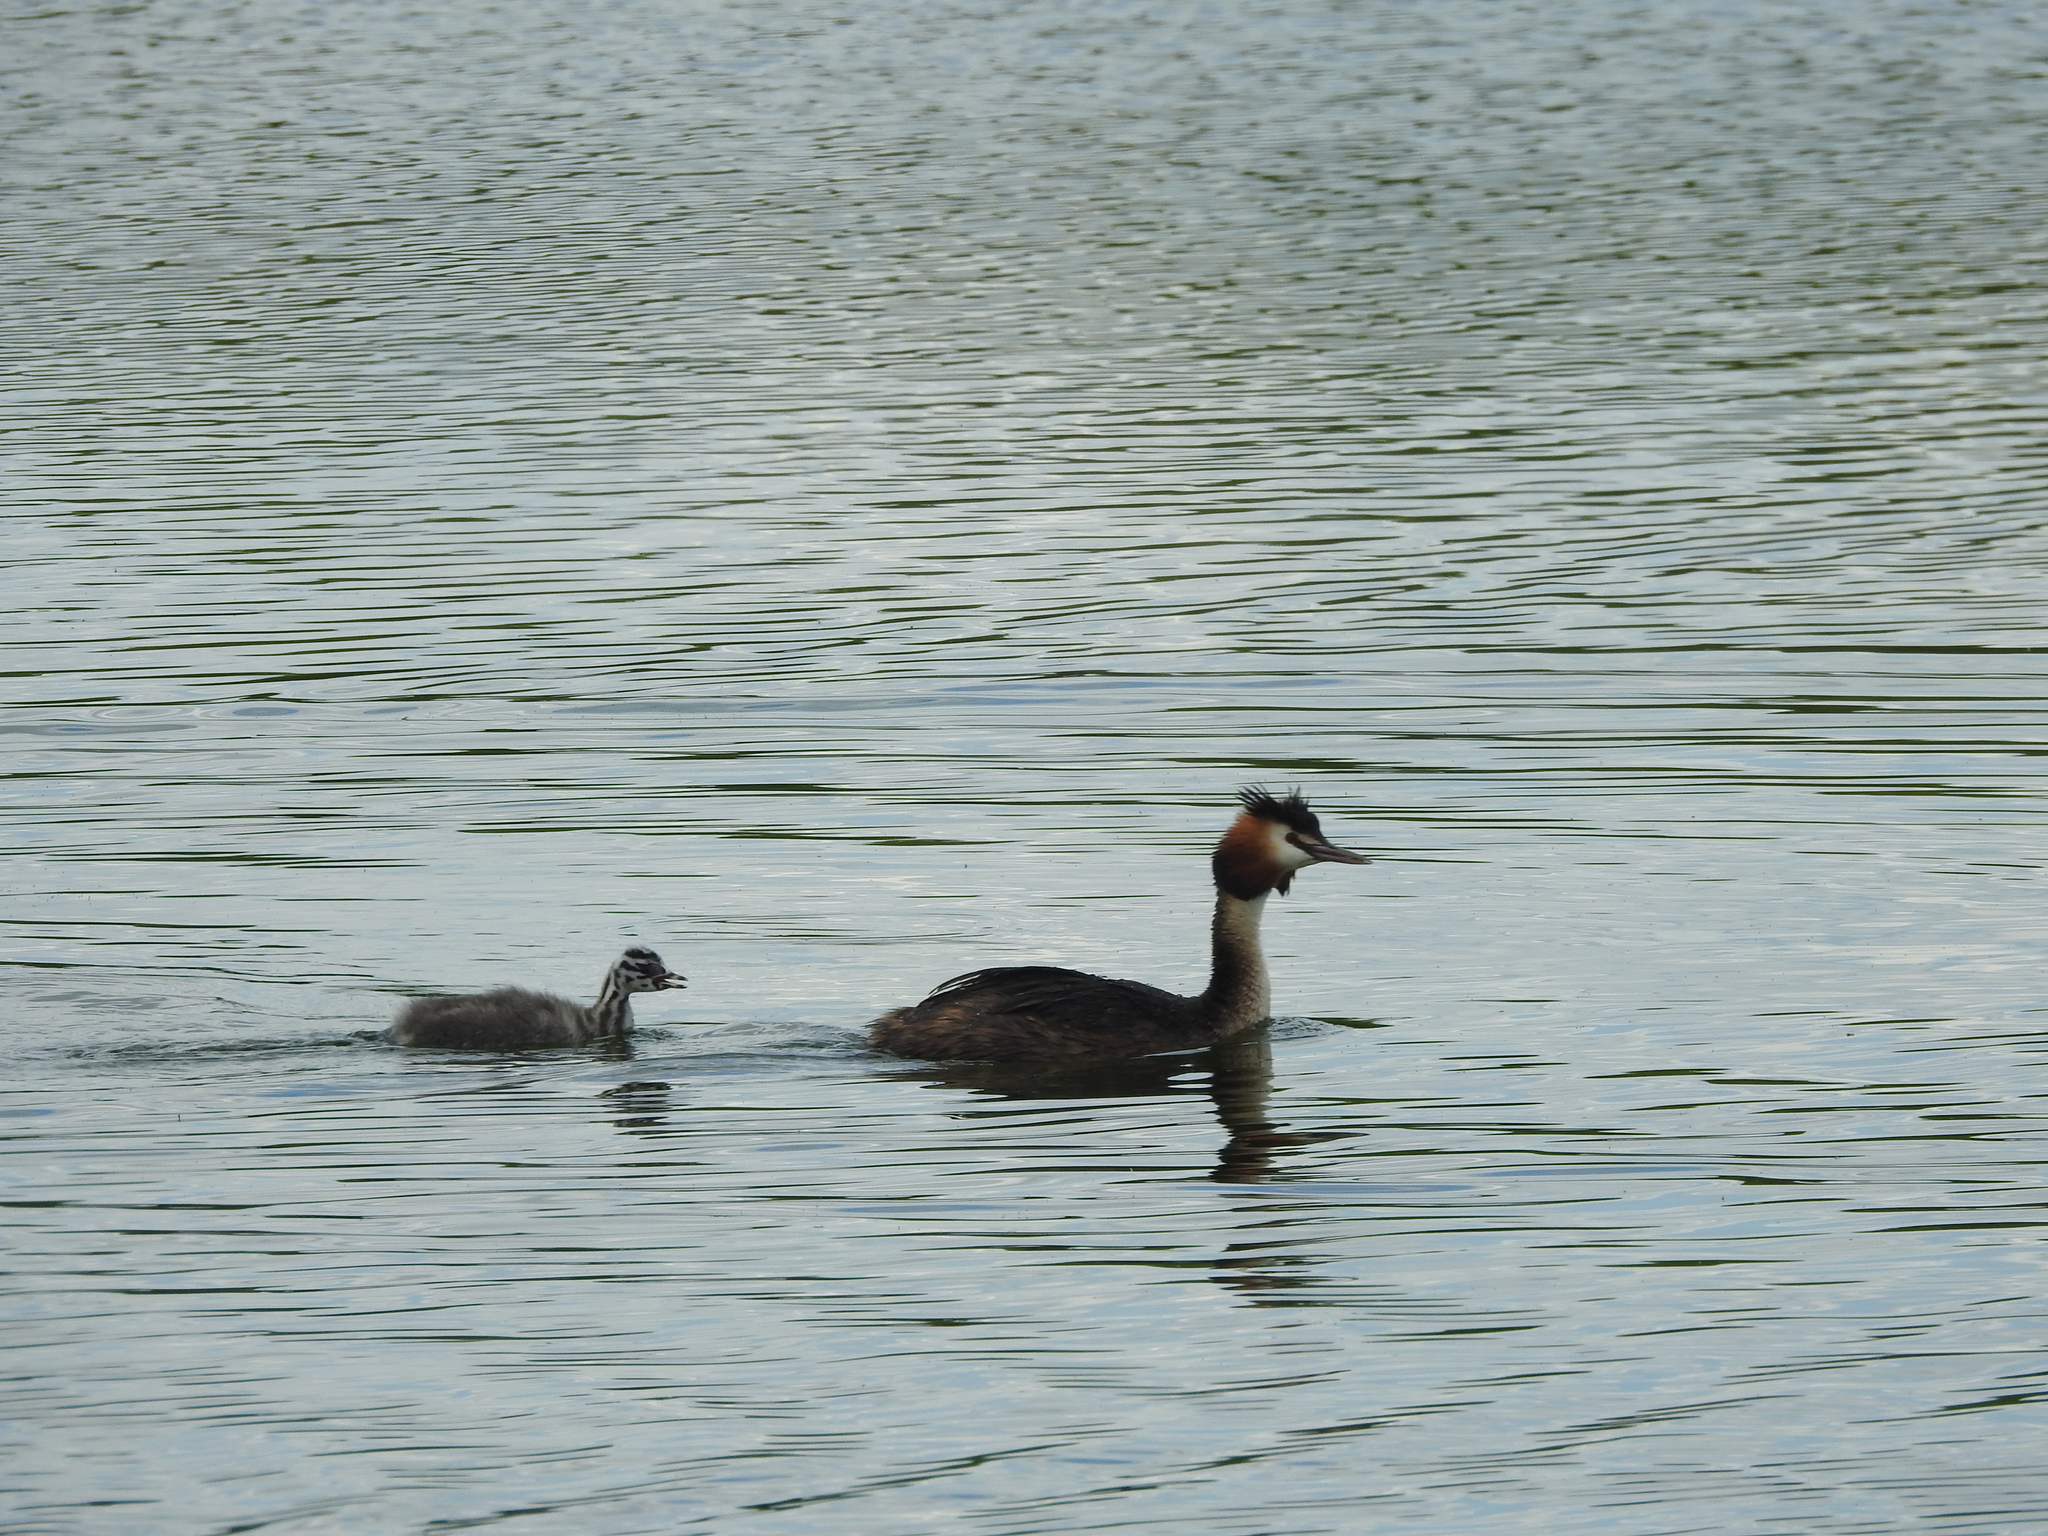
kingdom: Animalia
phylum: Chordata
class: Aves
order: Podicipediformes
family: Podicipedidae
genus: Podiceps
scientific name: Podiceps cristatus
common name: Great crested grebe
